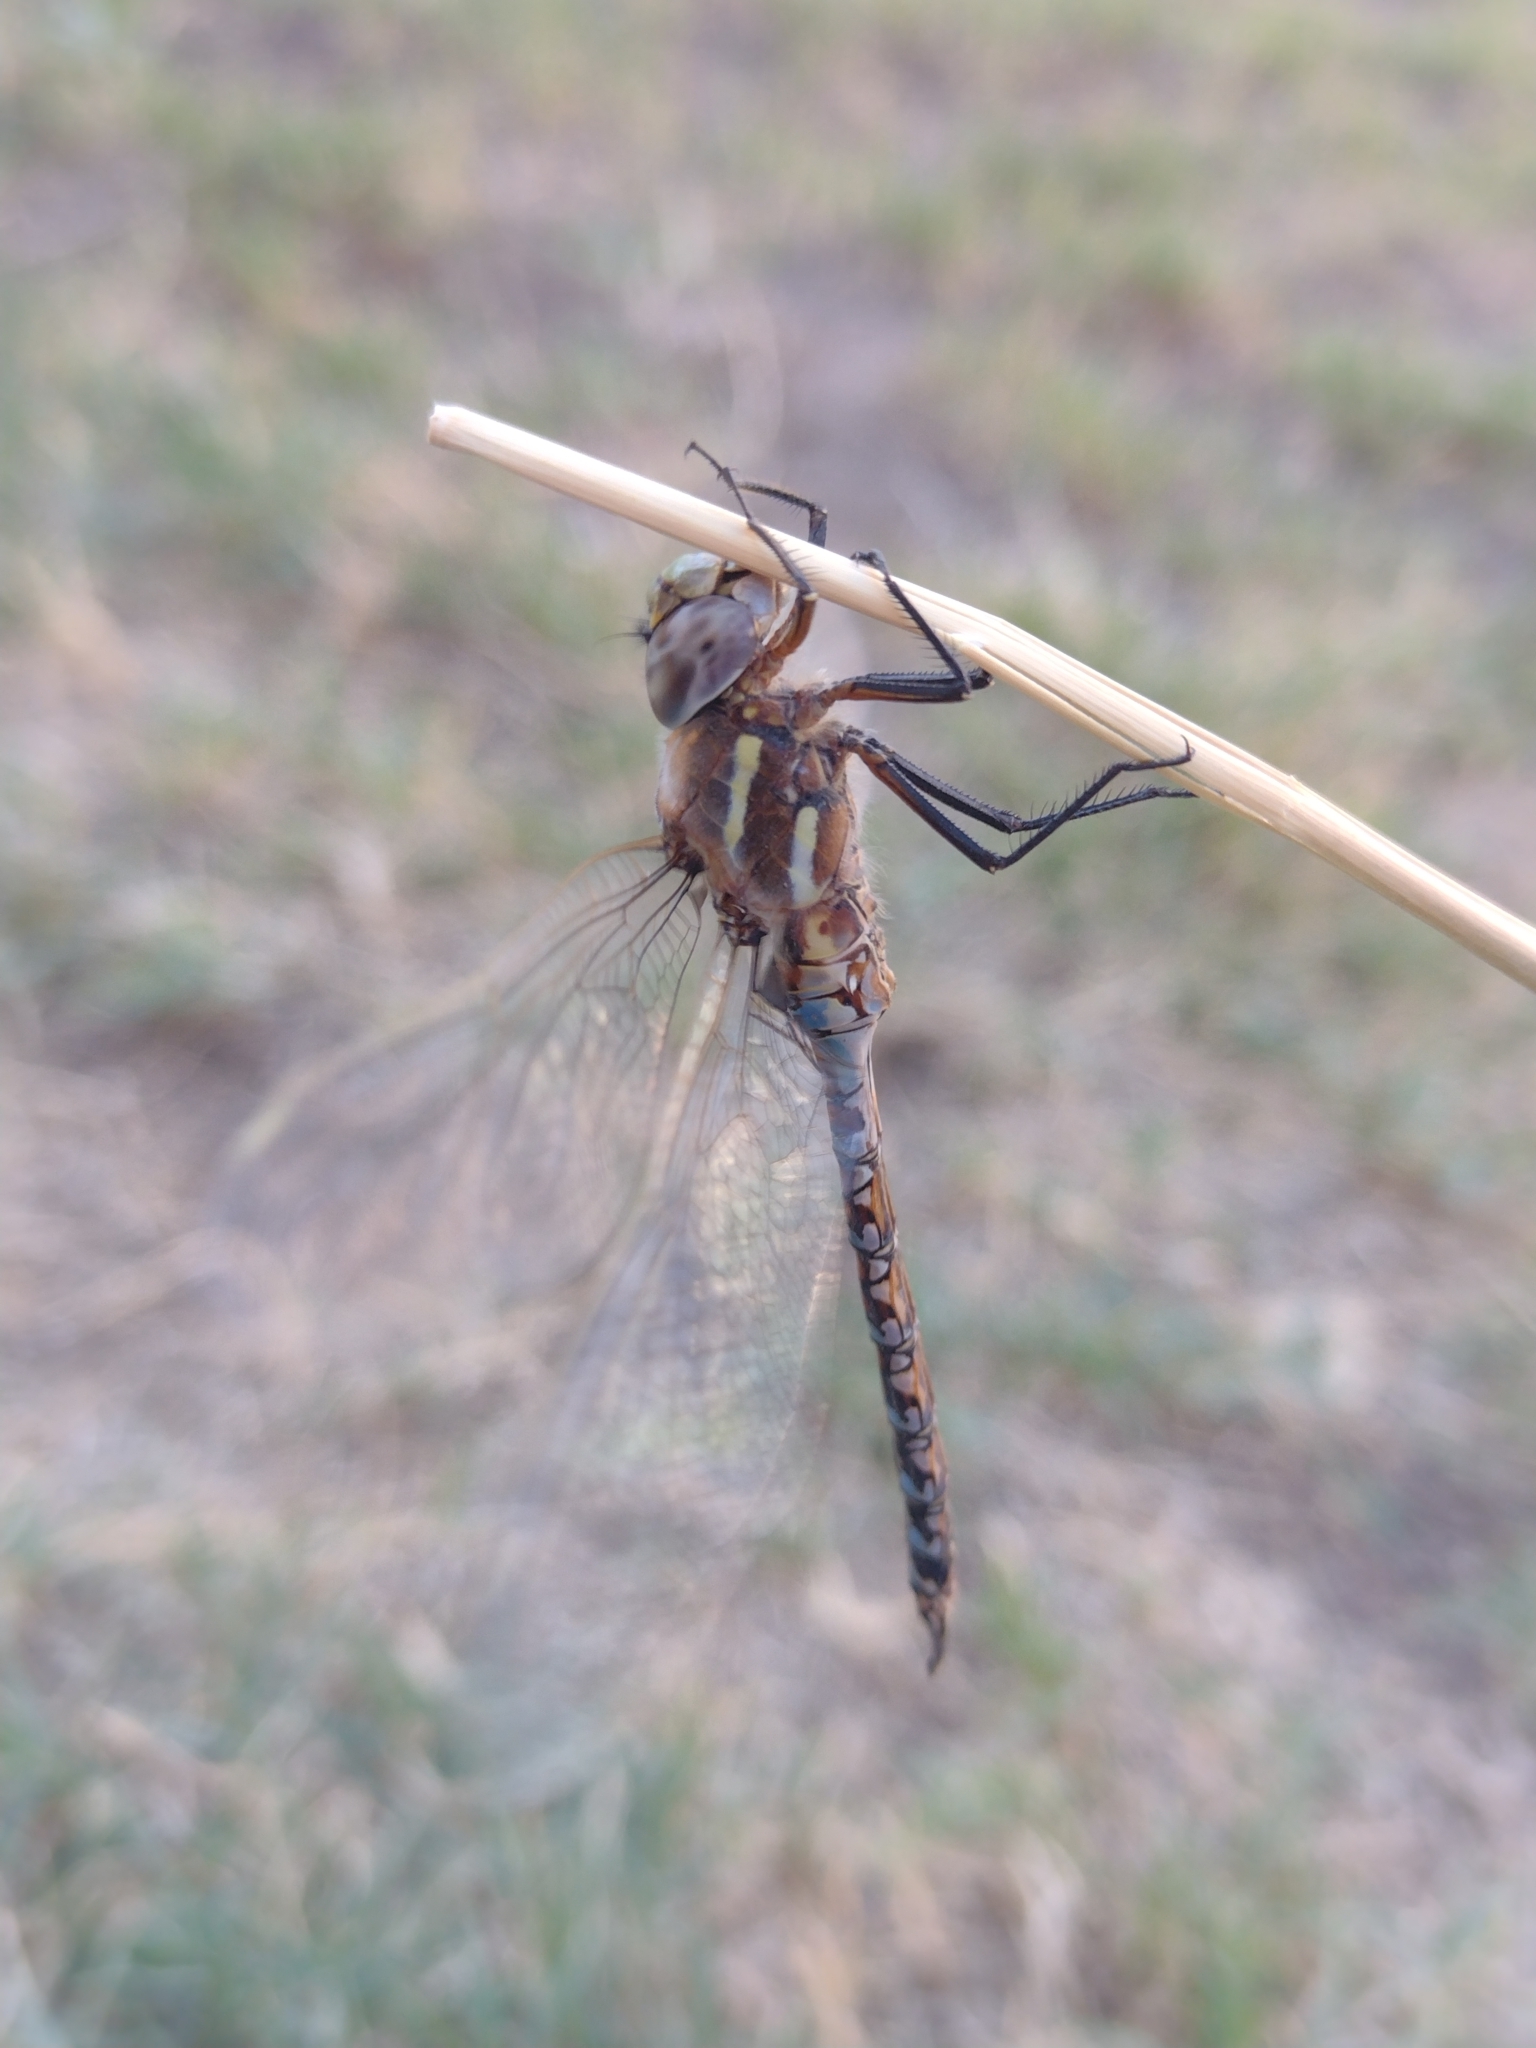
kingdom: Animalia
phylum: Arthropoda
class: Insecta
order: Odonata
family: Aeshnidae
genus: Rhionaeschna
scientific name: Rhionaeschna bonariensis
